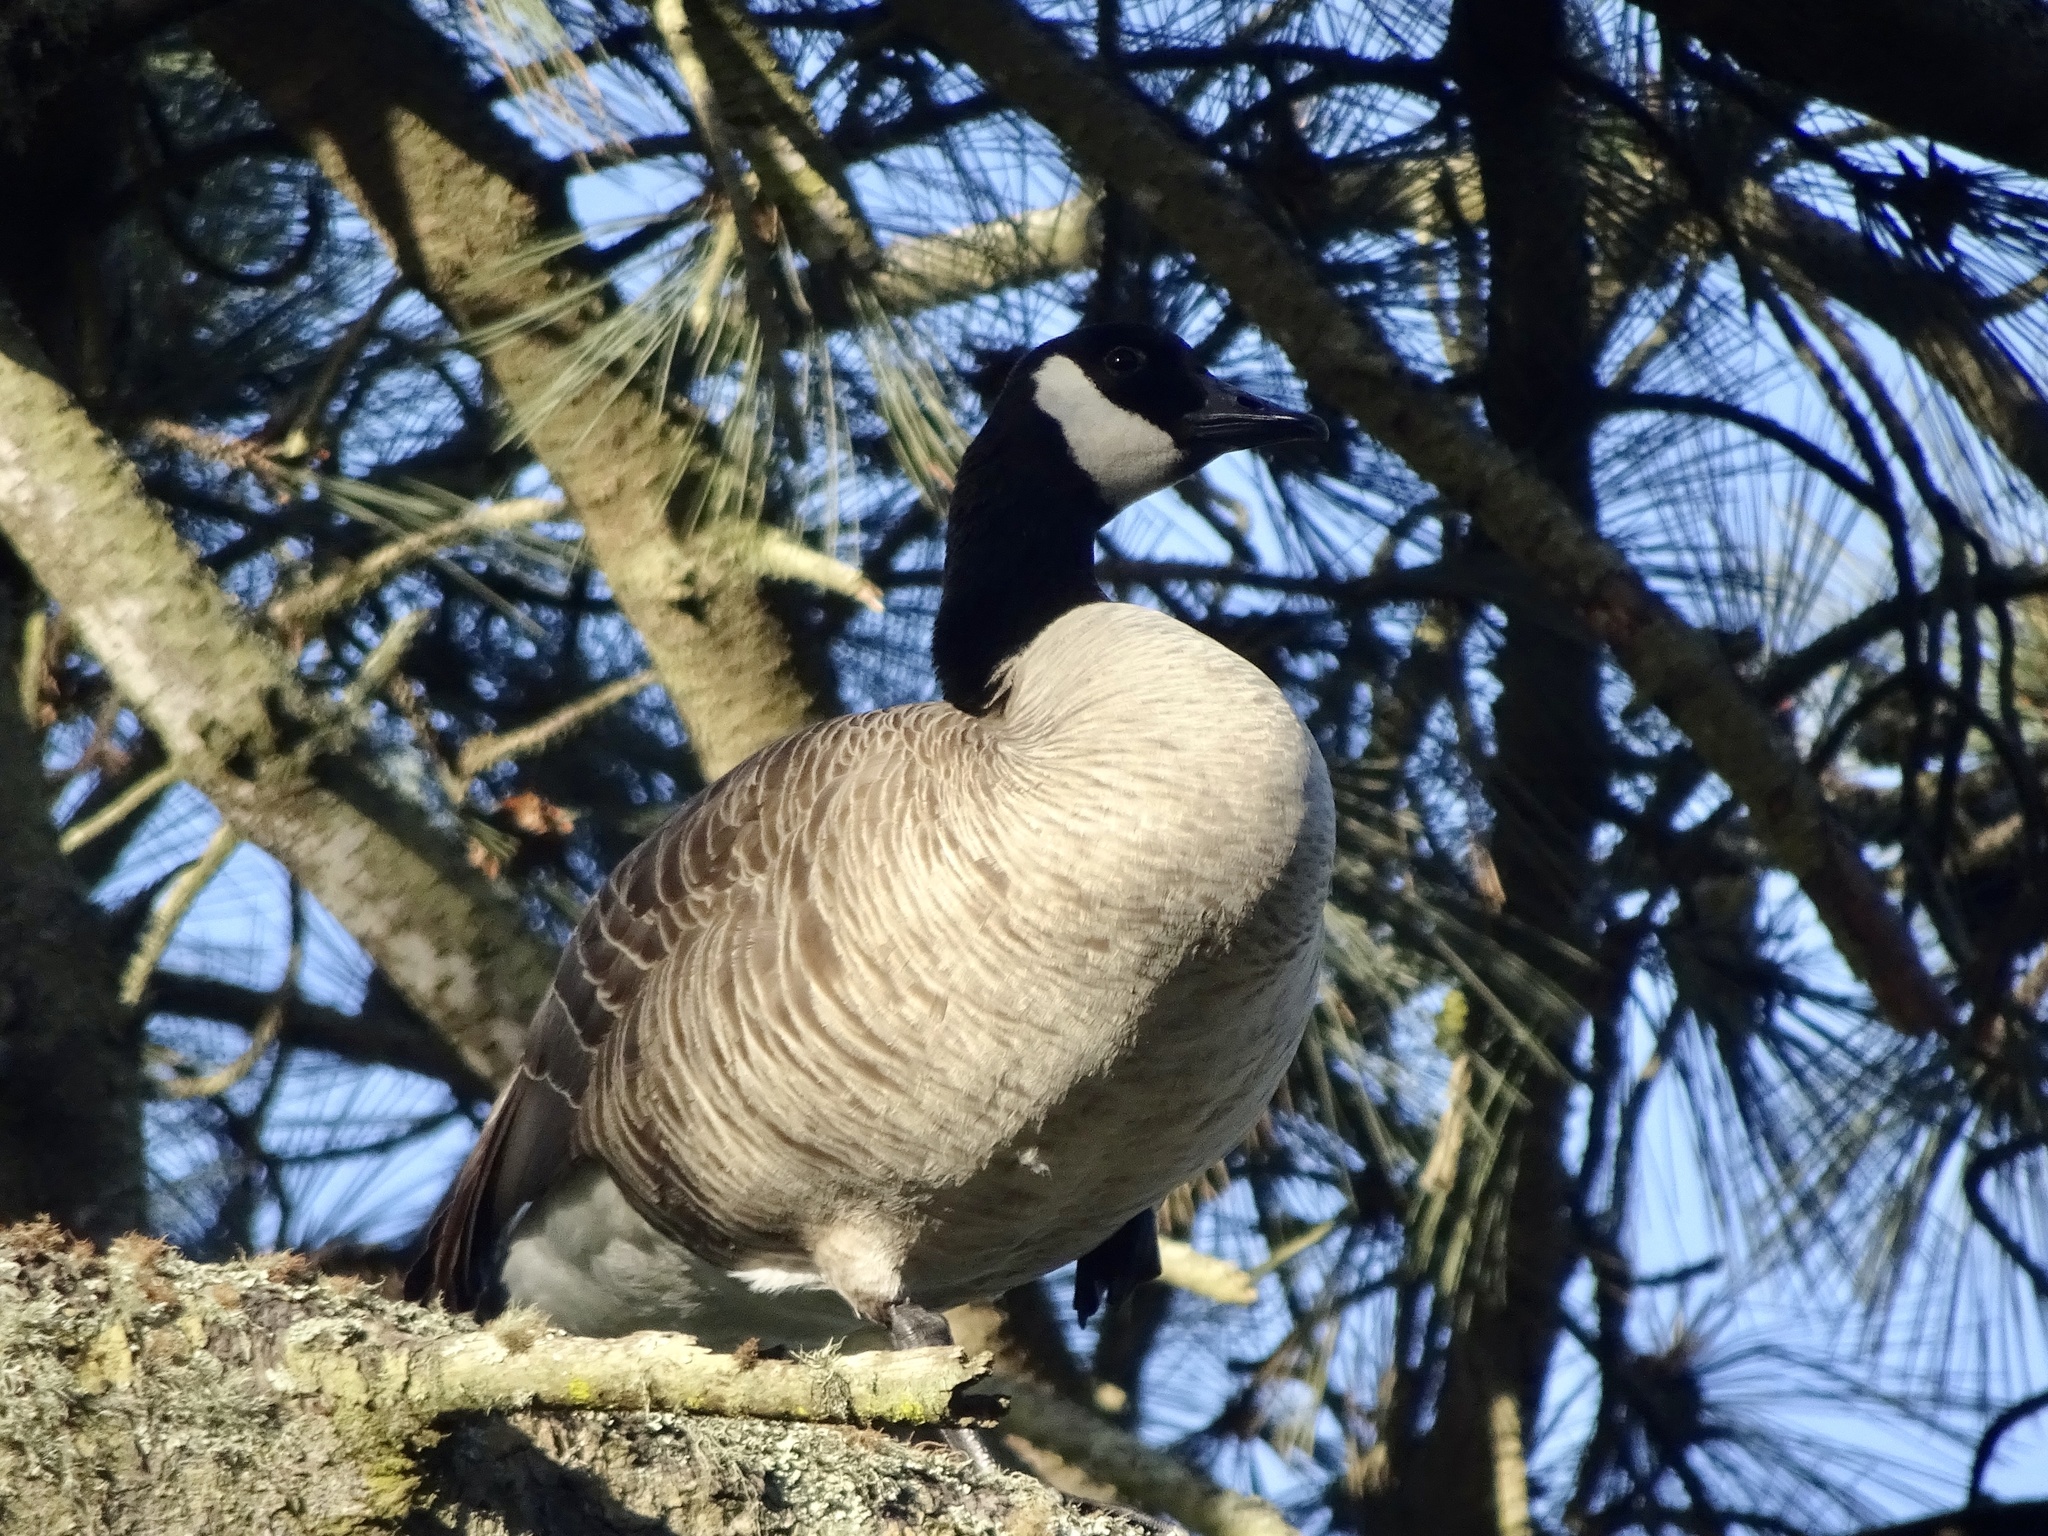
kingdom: Animalia
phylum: Chordata
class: Aves
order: Anseriformes
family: Anatidae
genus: Branta
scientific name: Branta canadensis
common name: Canada goose
